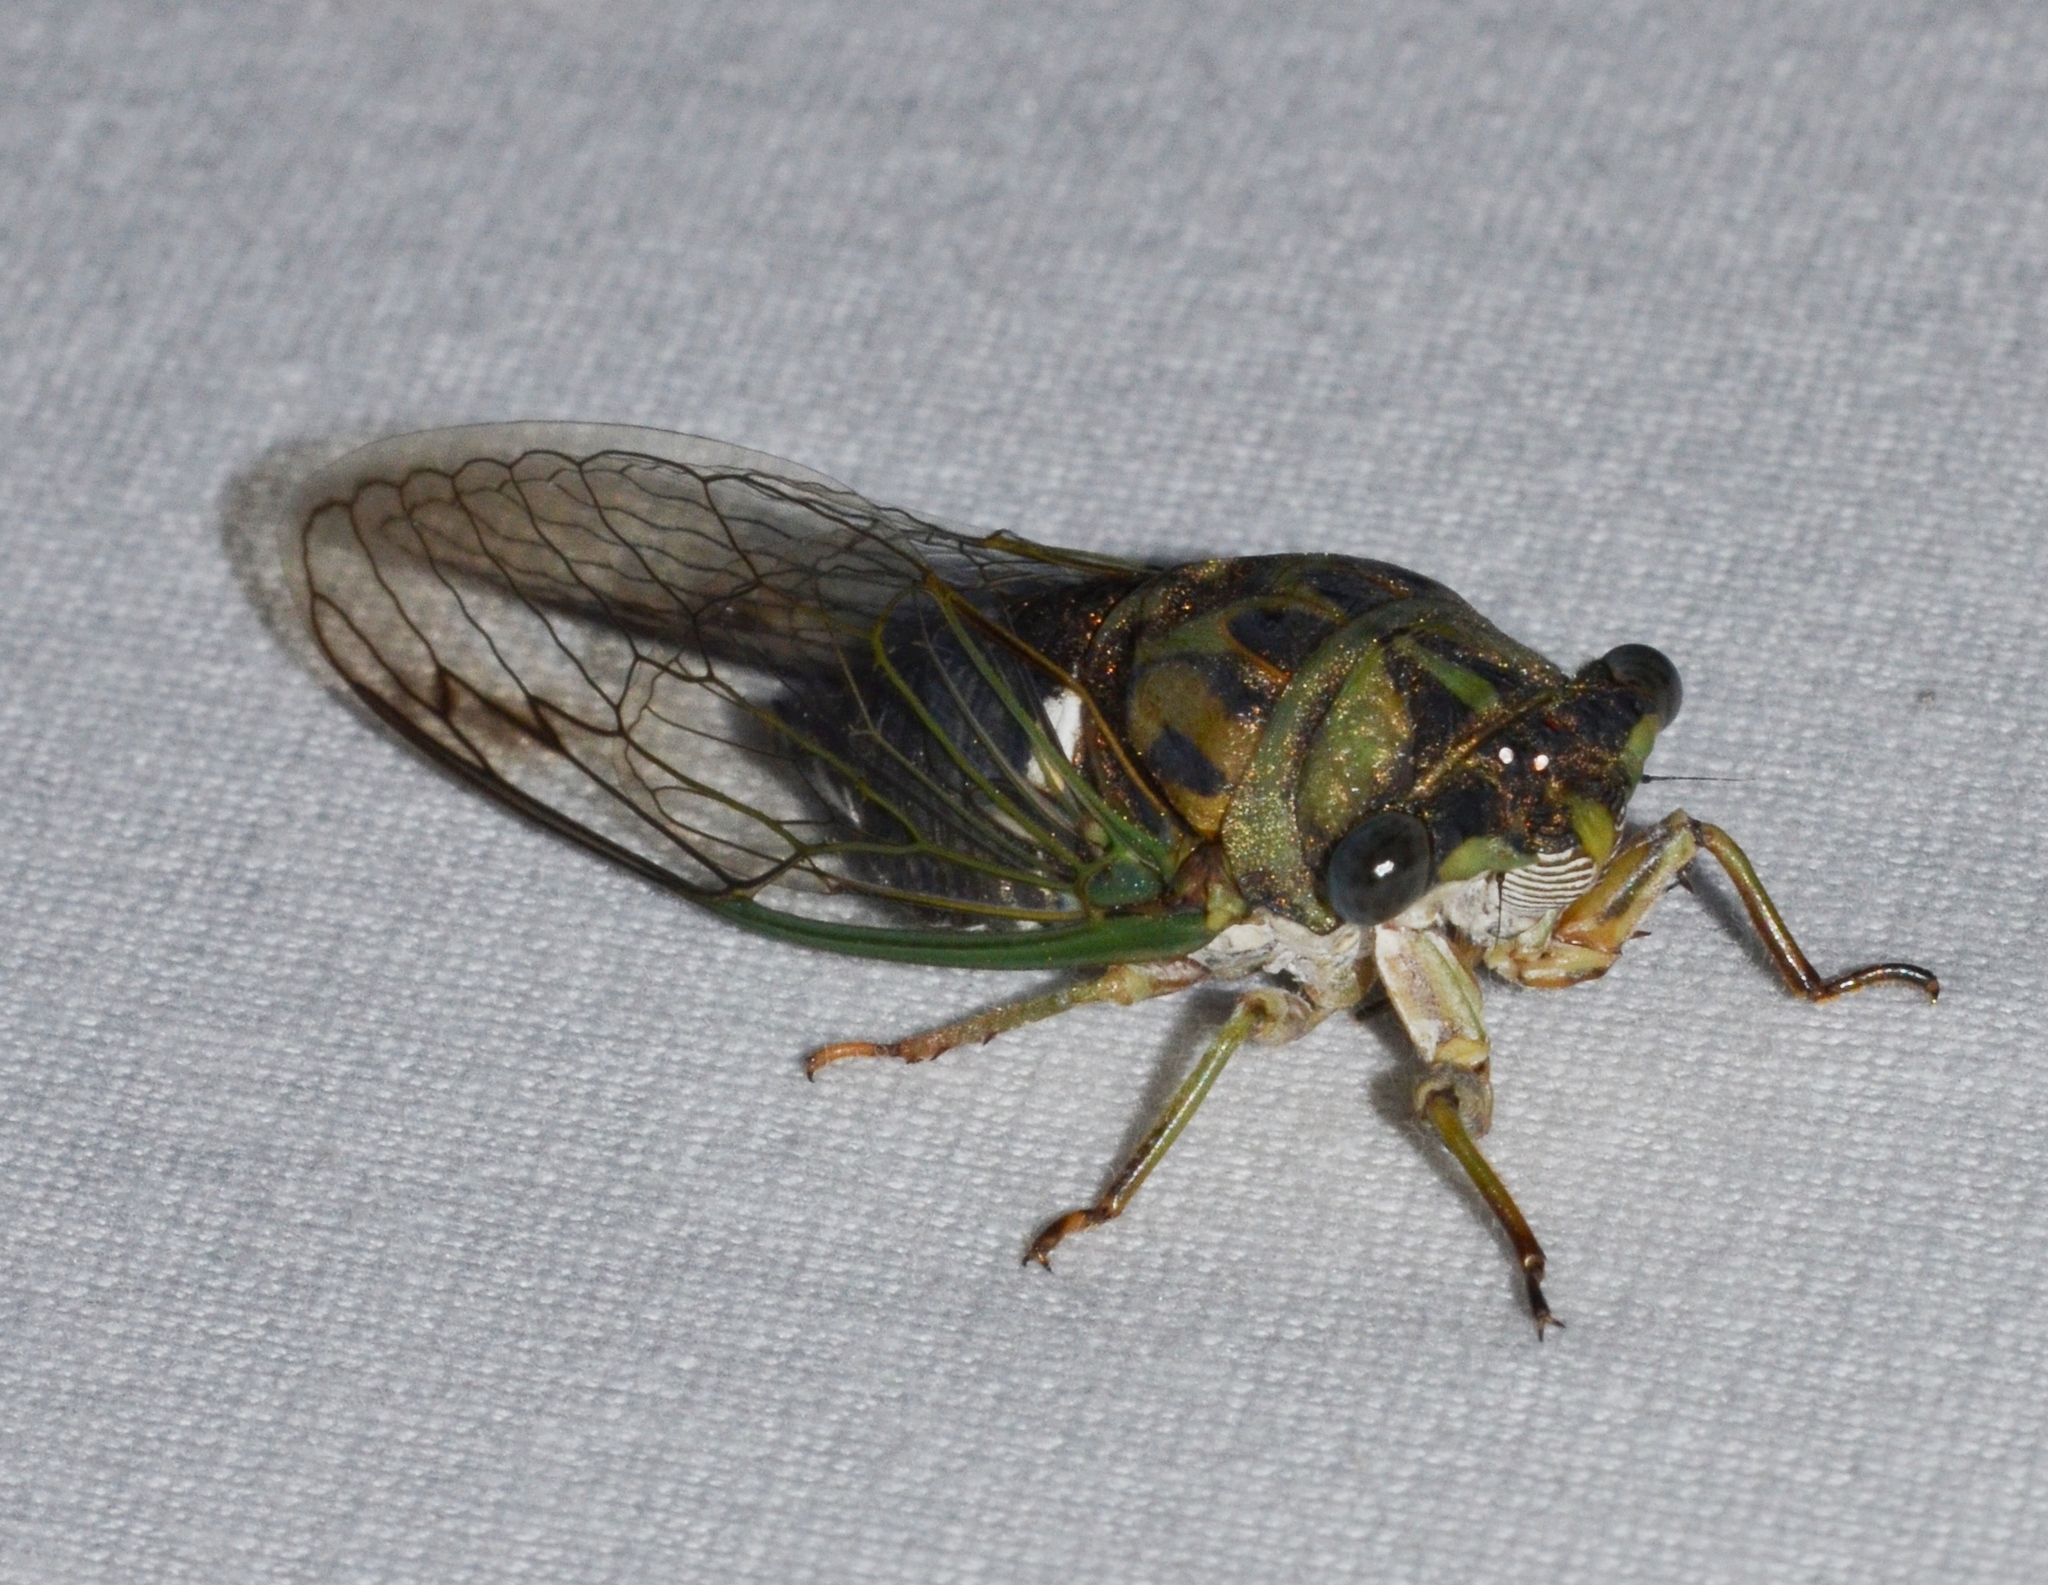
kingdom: Animalia
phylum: Arthropoda
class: Insecta
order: Hemiptera
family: Cicadidae
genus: Neotibicen
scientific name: Neotibicen pruinosus
